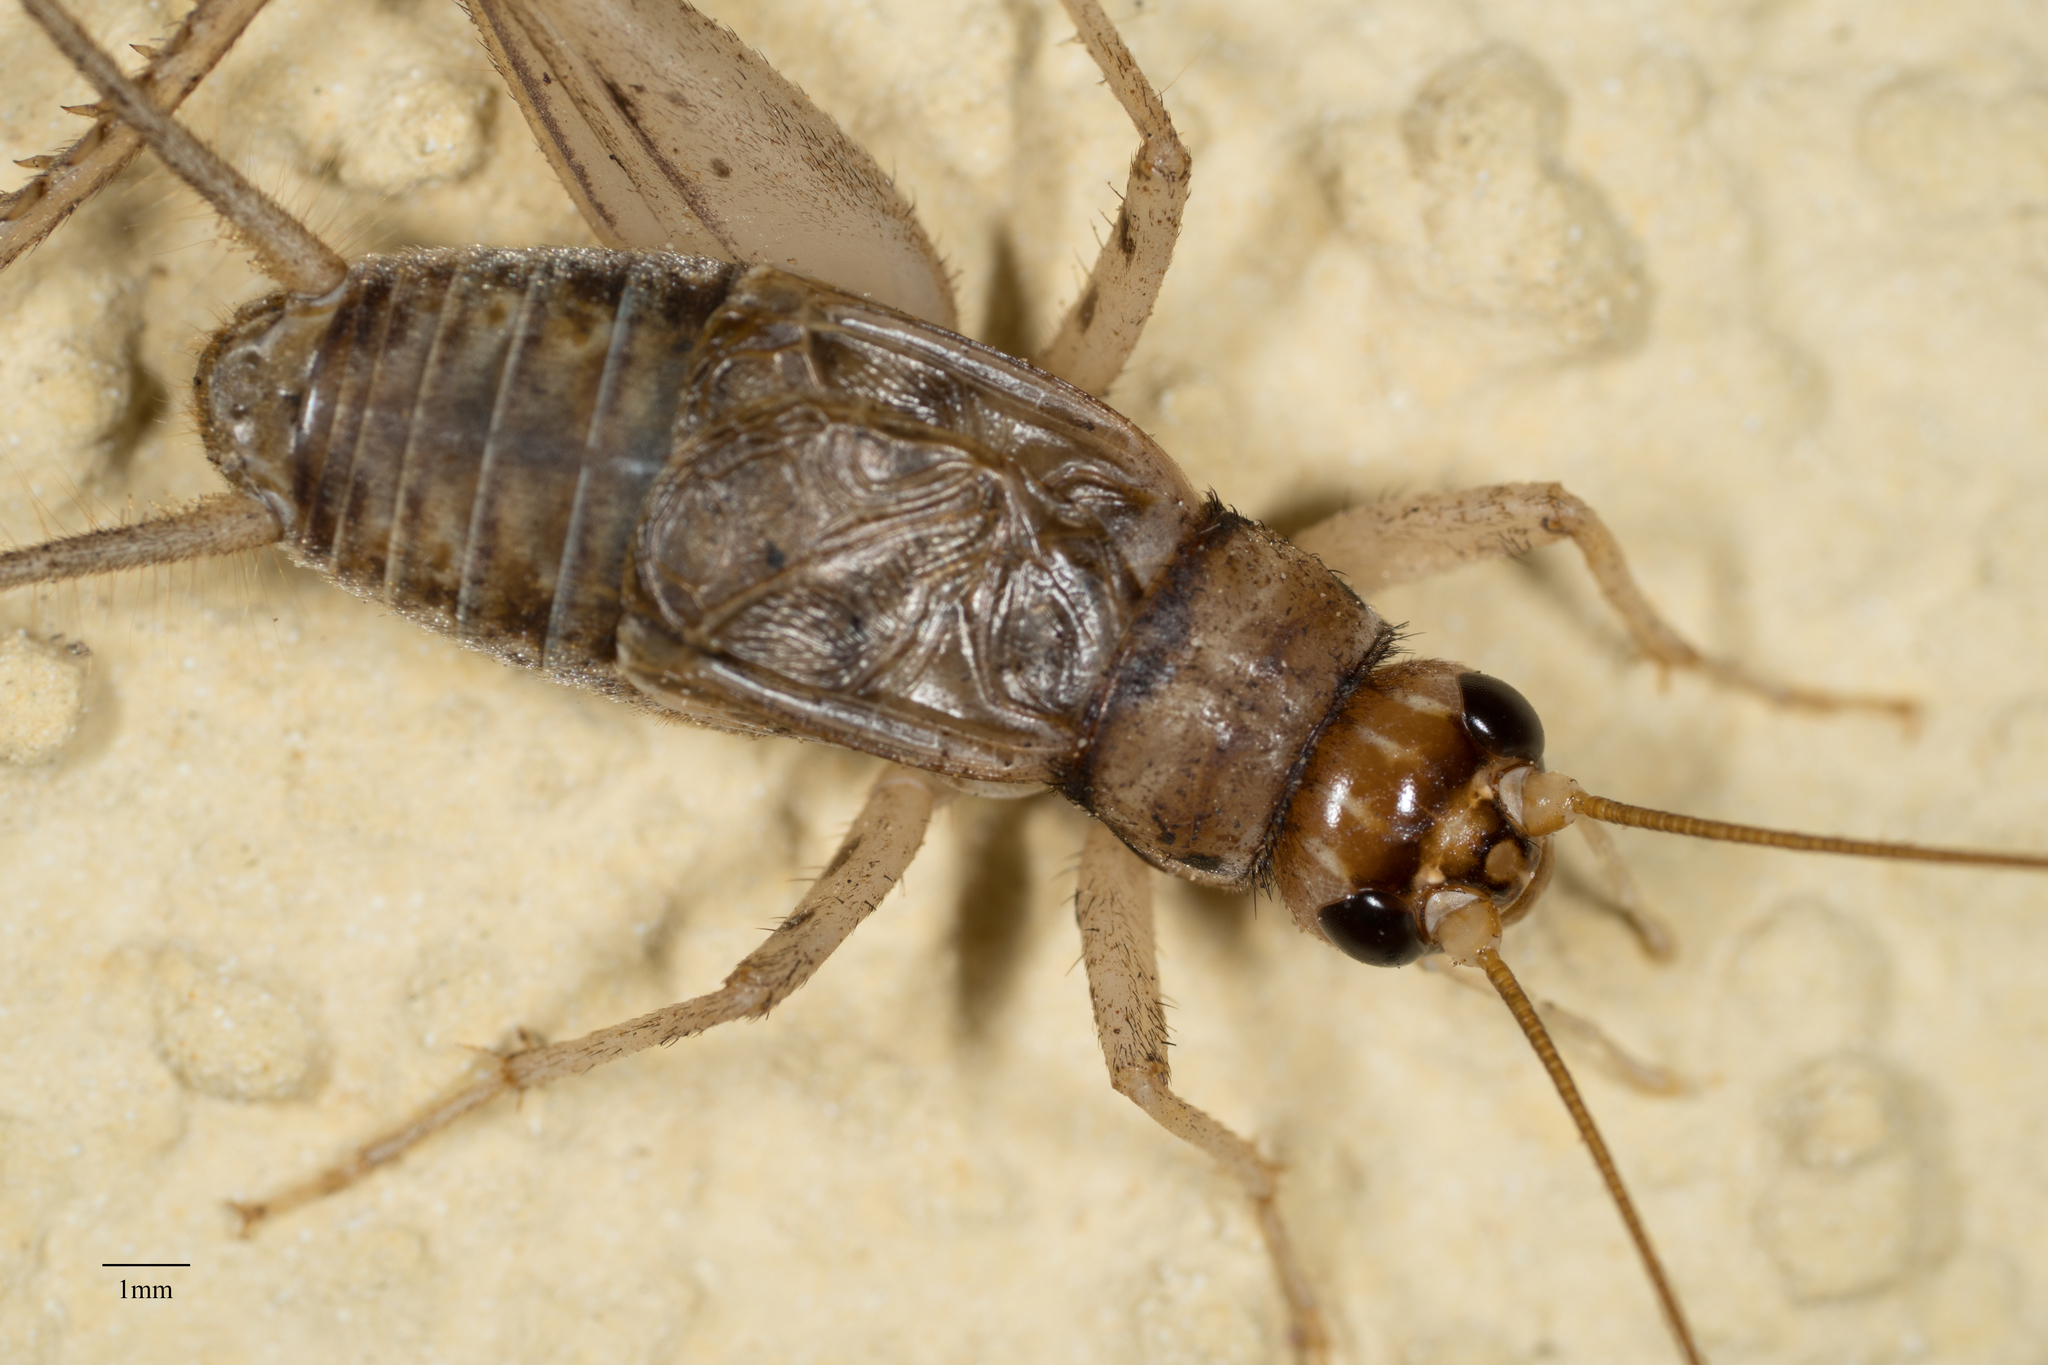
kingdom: Animalia
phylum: Arthropoda
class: Insecta
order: Orthoptera
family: Gryllidae
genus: Gryllodes
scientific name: Gryllodes sigillatus
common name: Tropical house cricket
